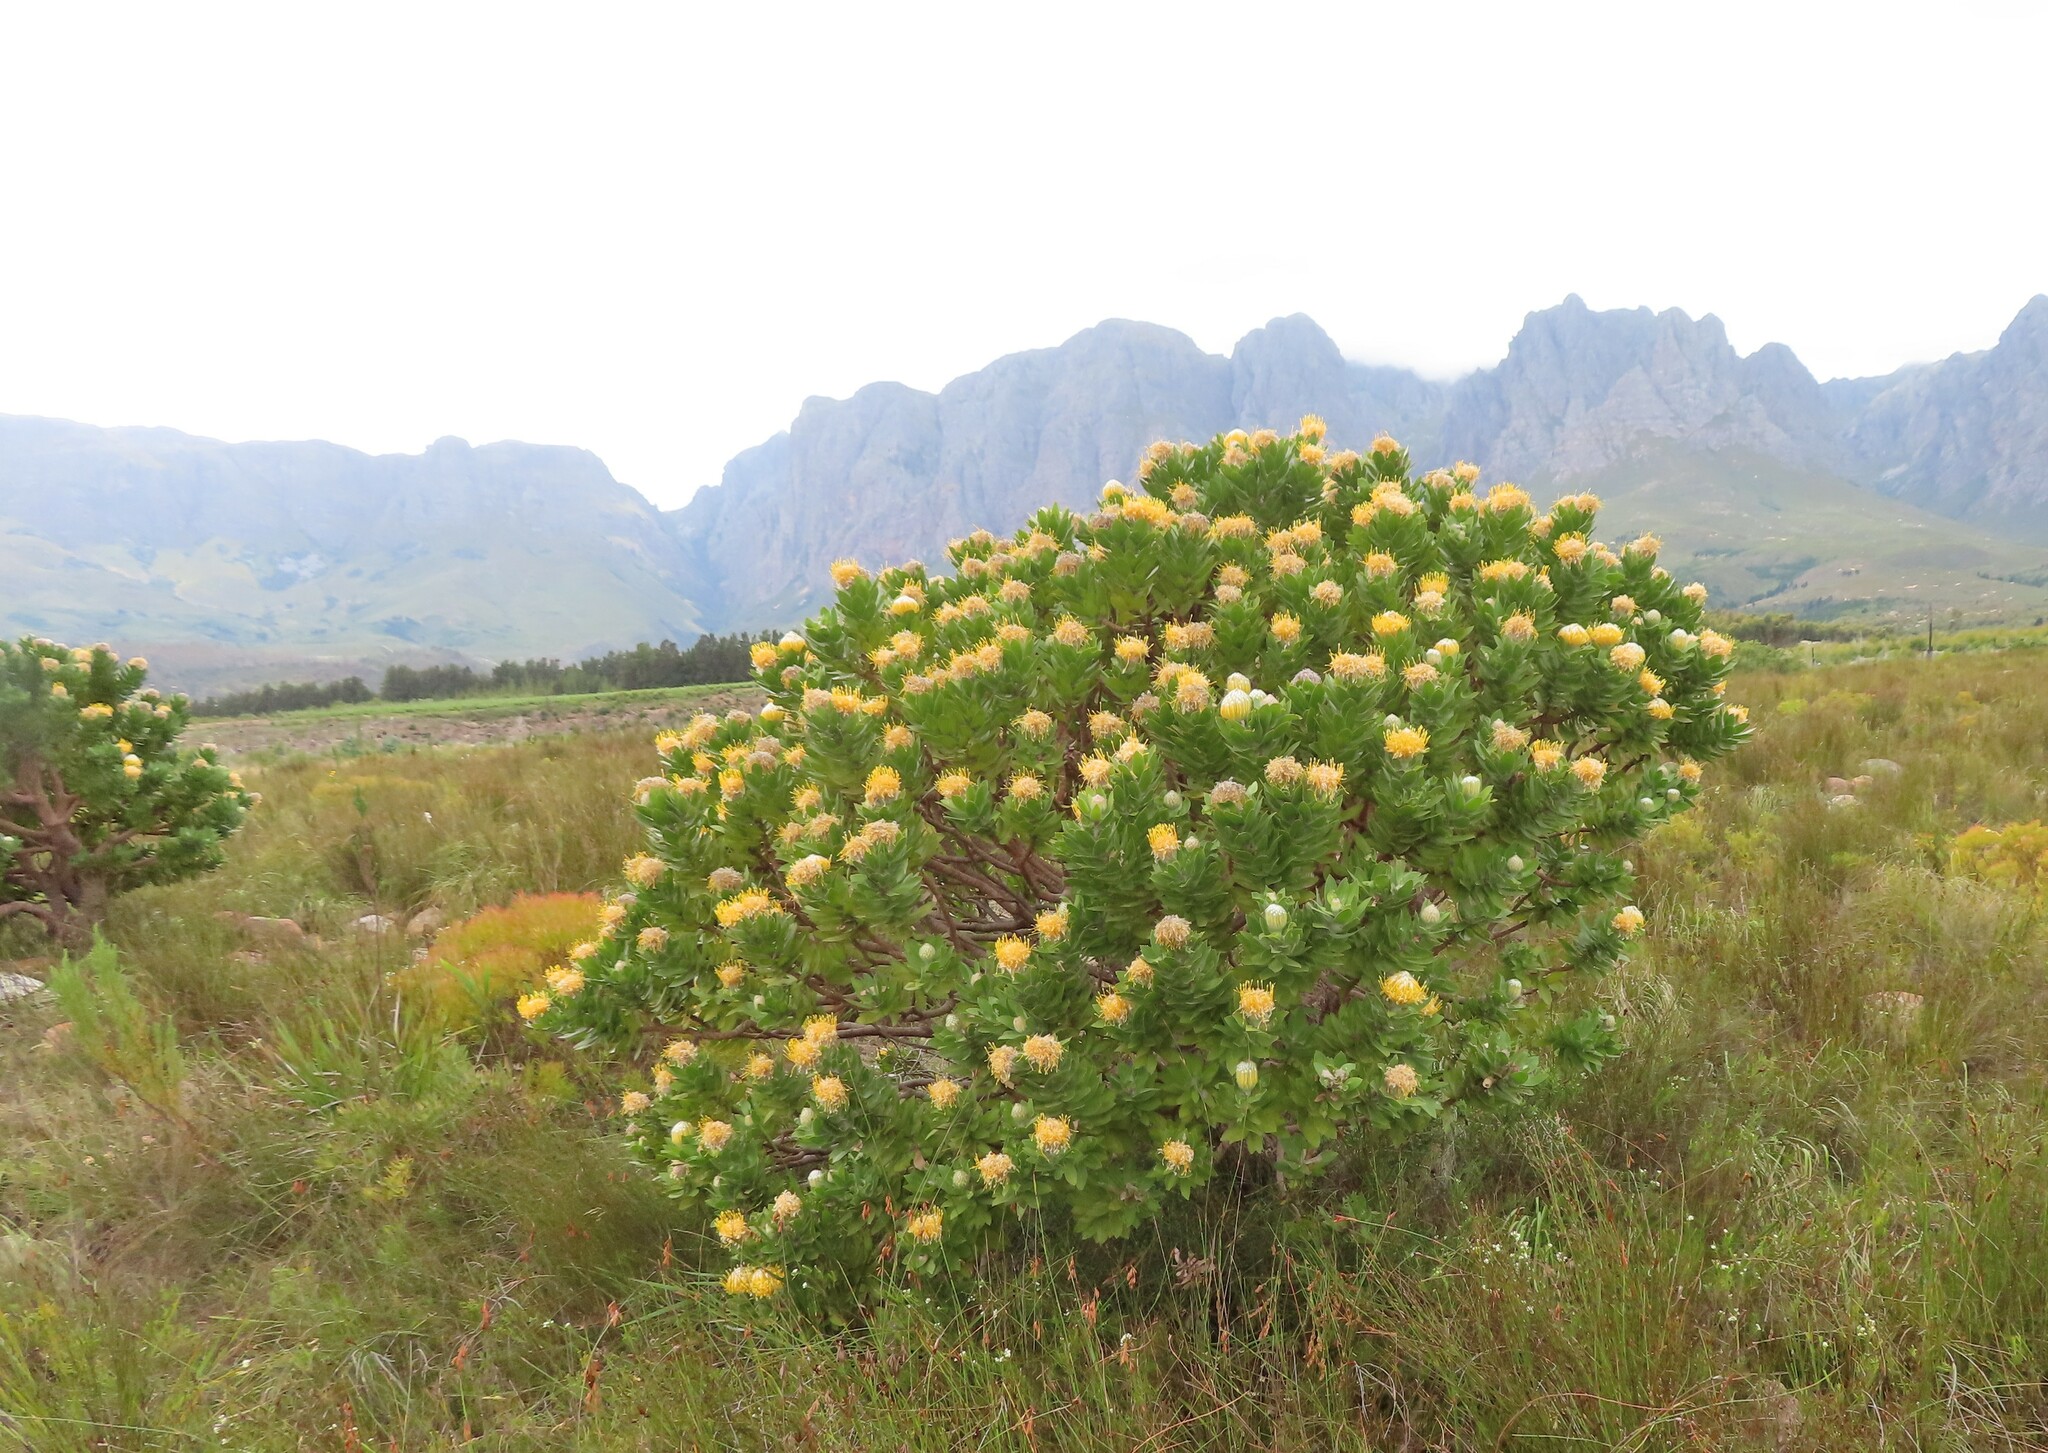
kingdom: Plantae
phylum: Tracheophyta
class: Magnoliopsida
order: Proteales
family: Proteaceae
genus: Leucospermum
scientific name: Leucospermum conocarpodendron
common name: Tree pincushion
